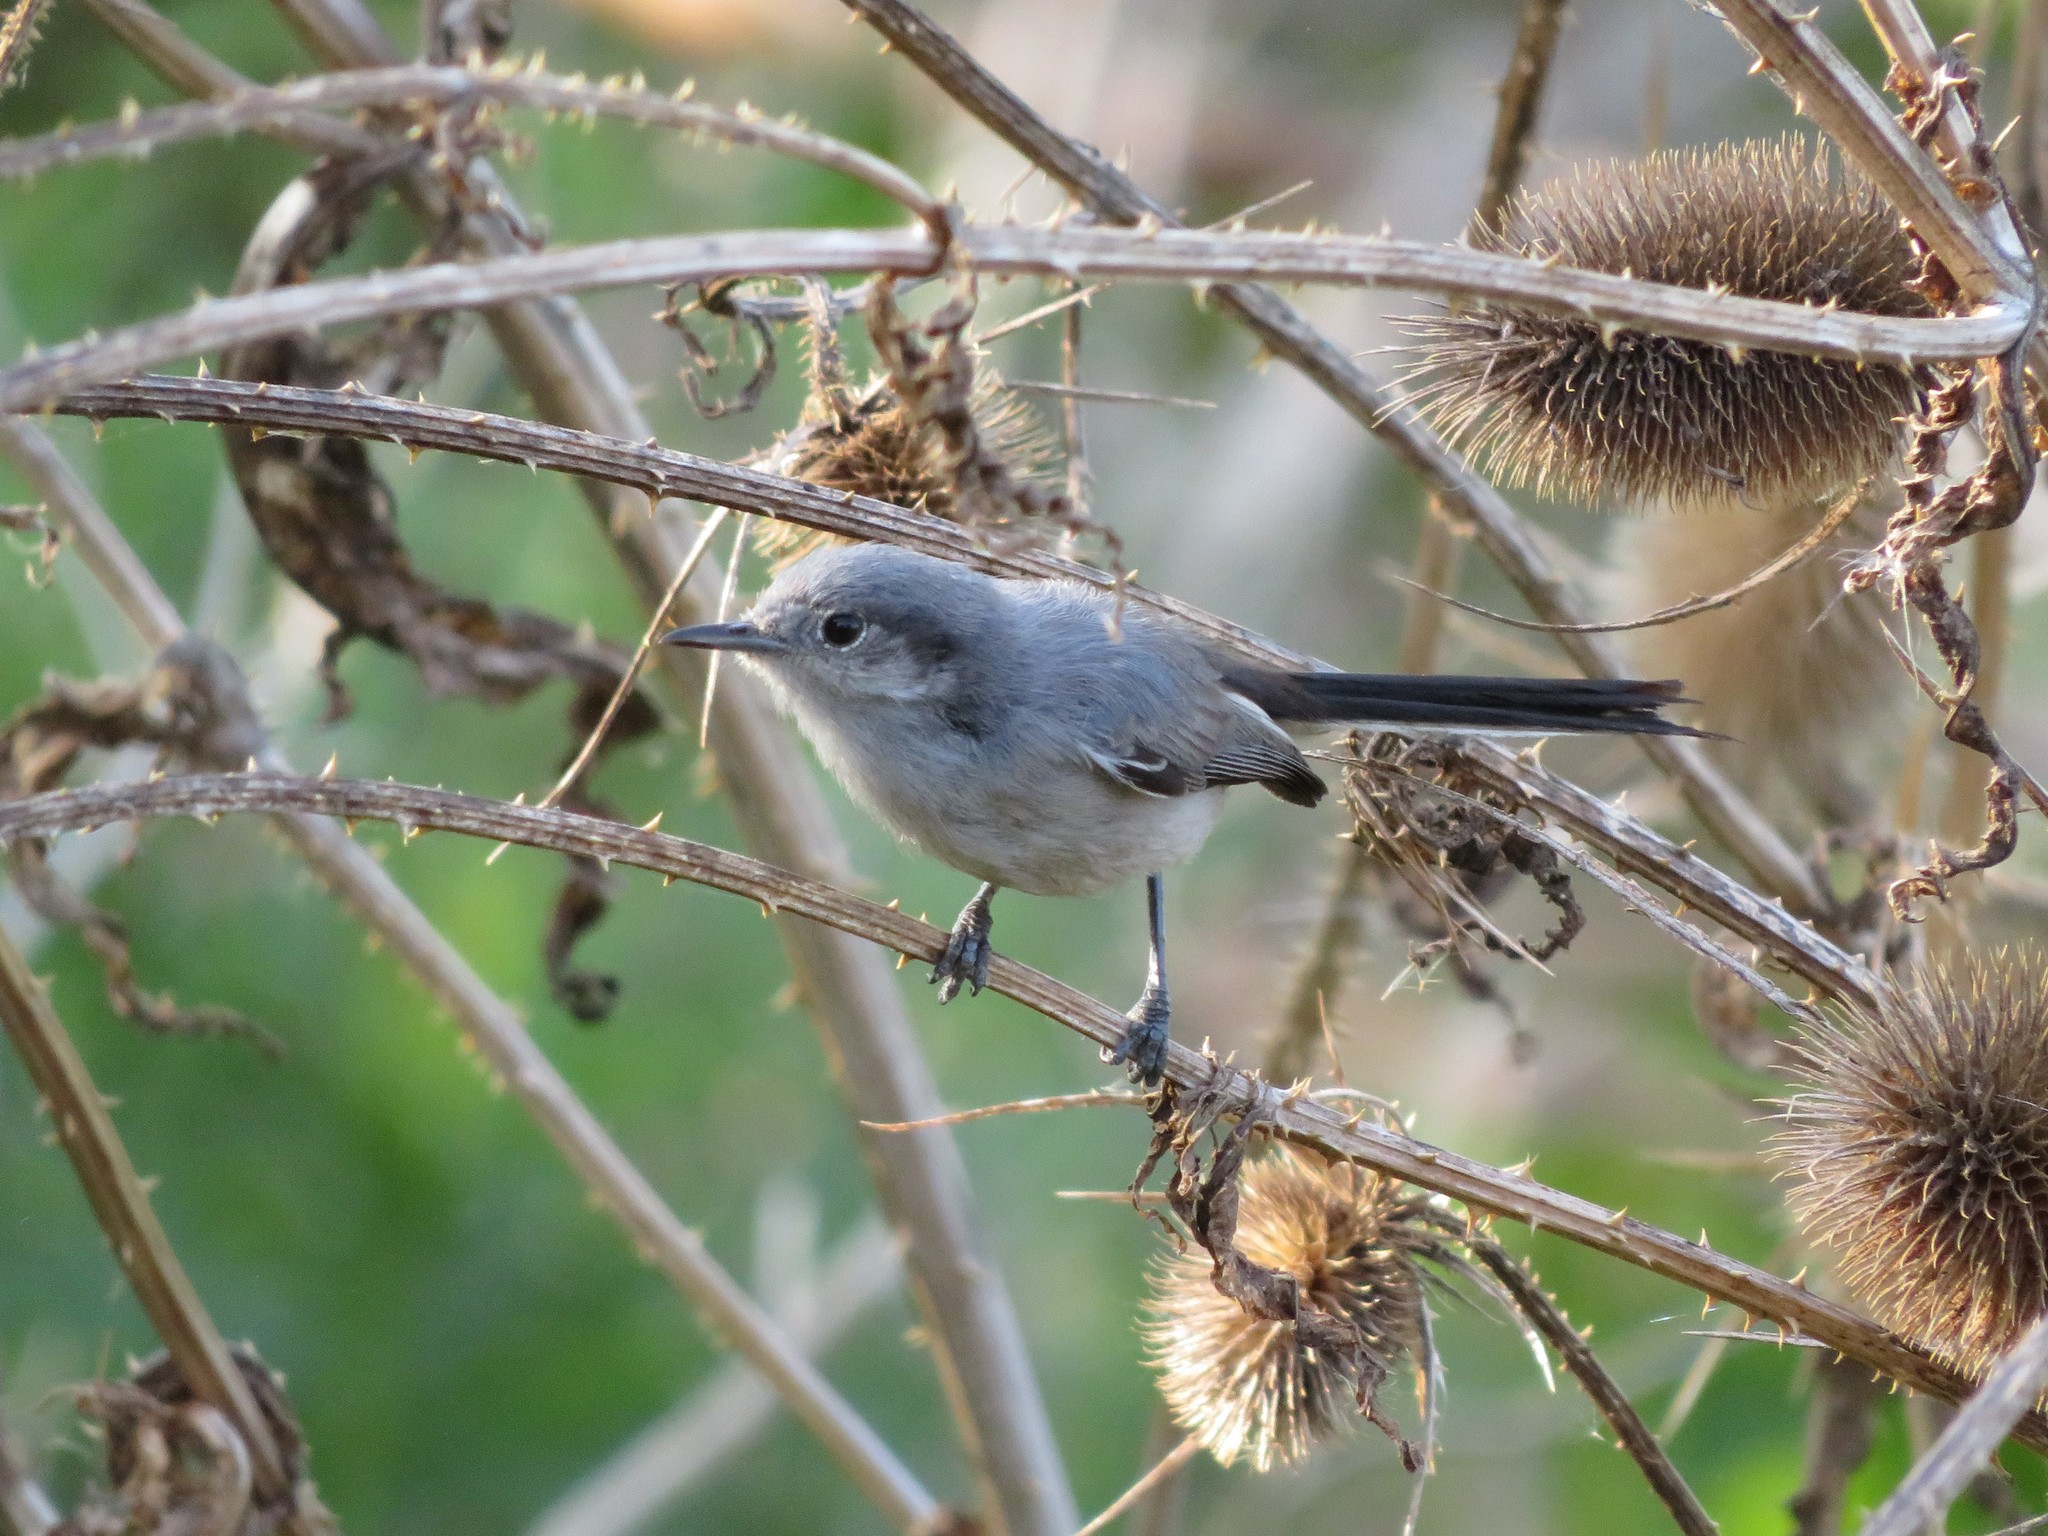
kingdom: Animalia
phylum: Chordata
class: Aves
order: Passeriformes
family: Polioptilidae
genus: Polioptila
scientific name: Polioptila dumicola
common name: Masked gnatcatcher
